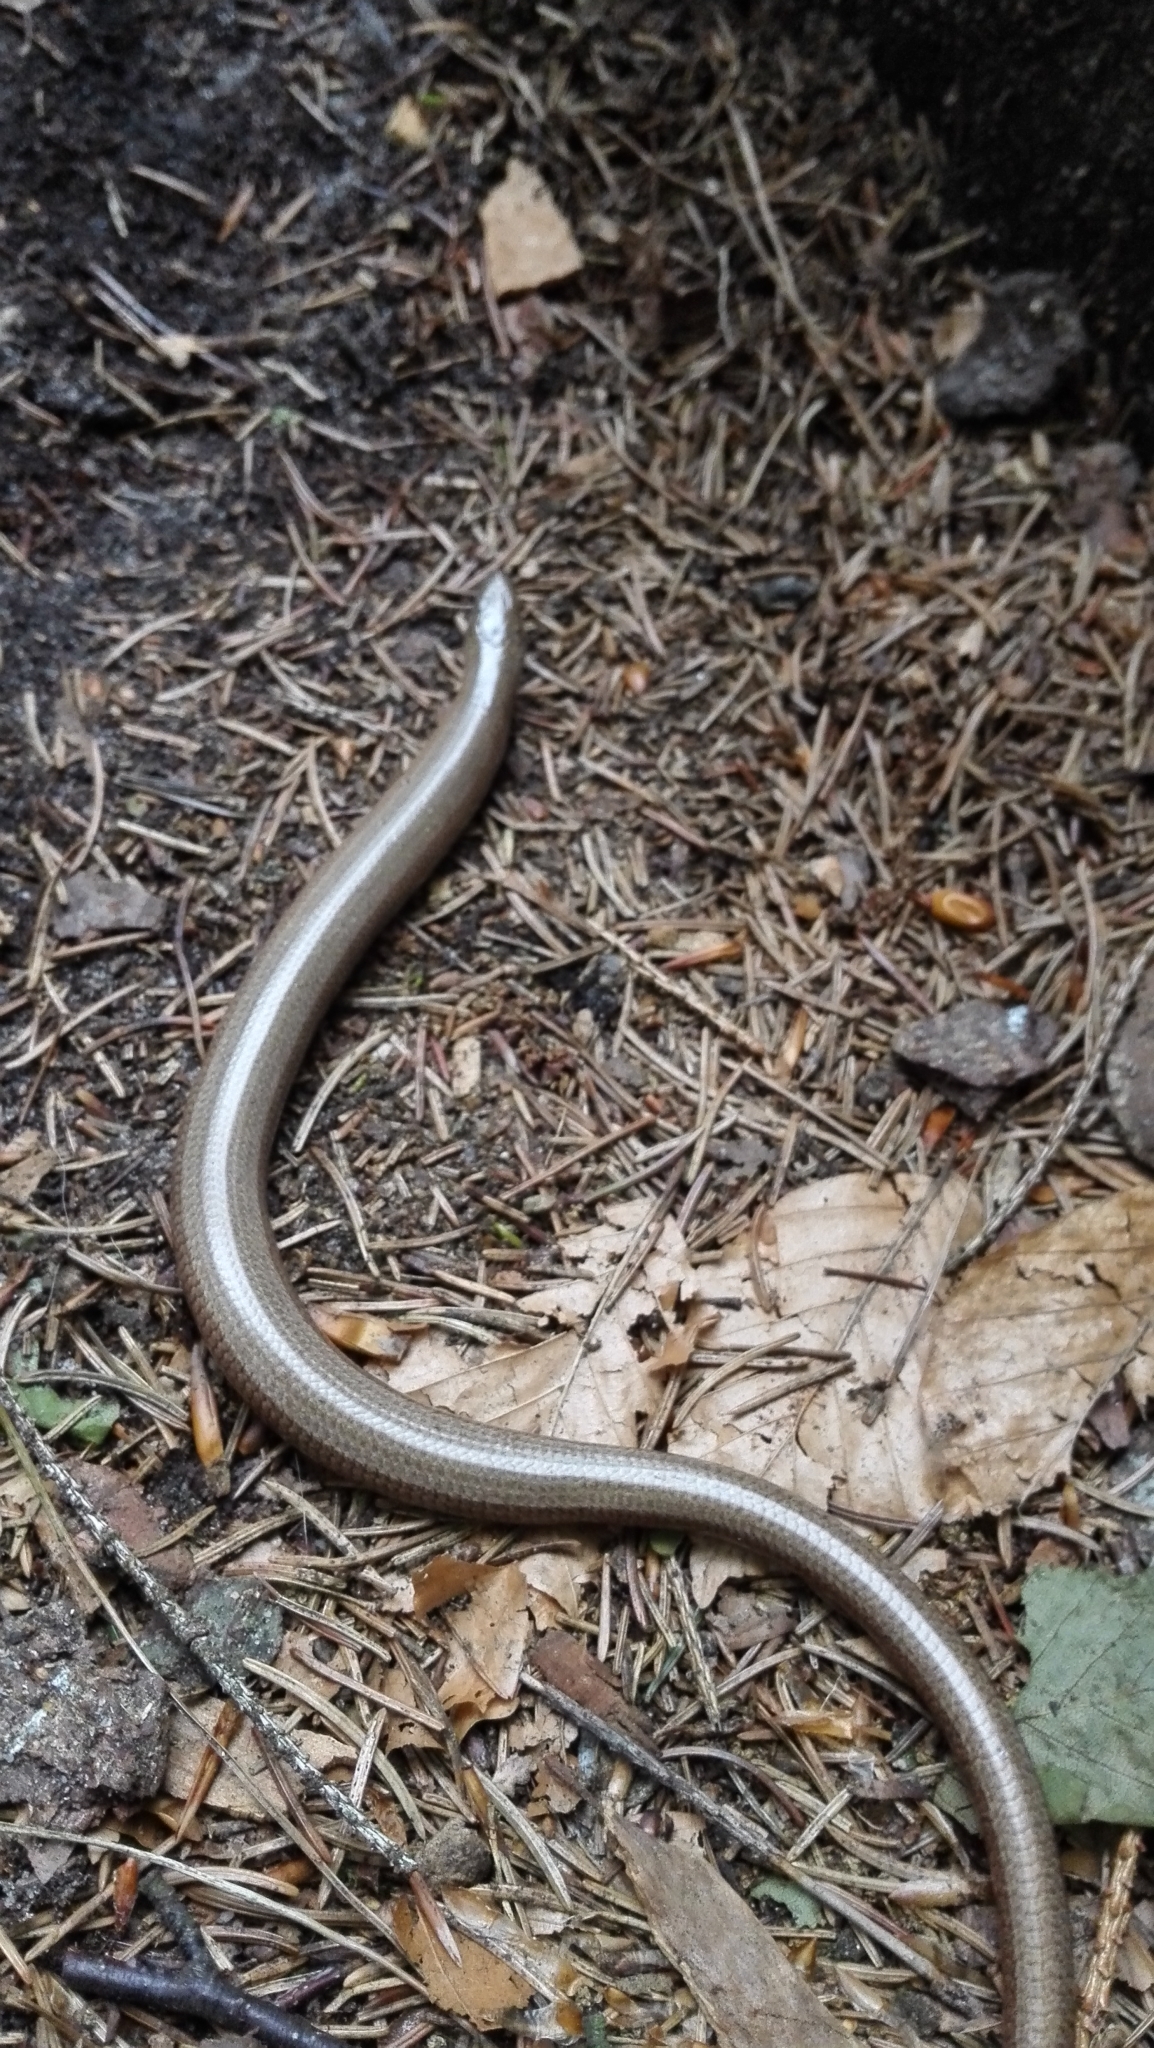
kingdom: Animalia
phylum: Chordata
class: Squamata
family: Anguidae
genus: Anguis
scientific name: Anguis fragilis
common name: Slow worm
